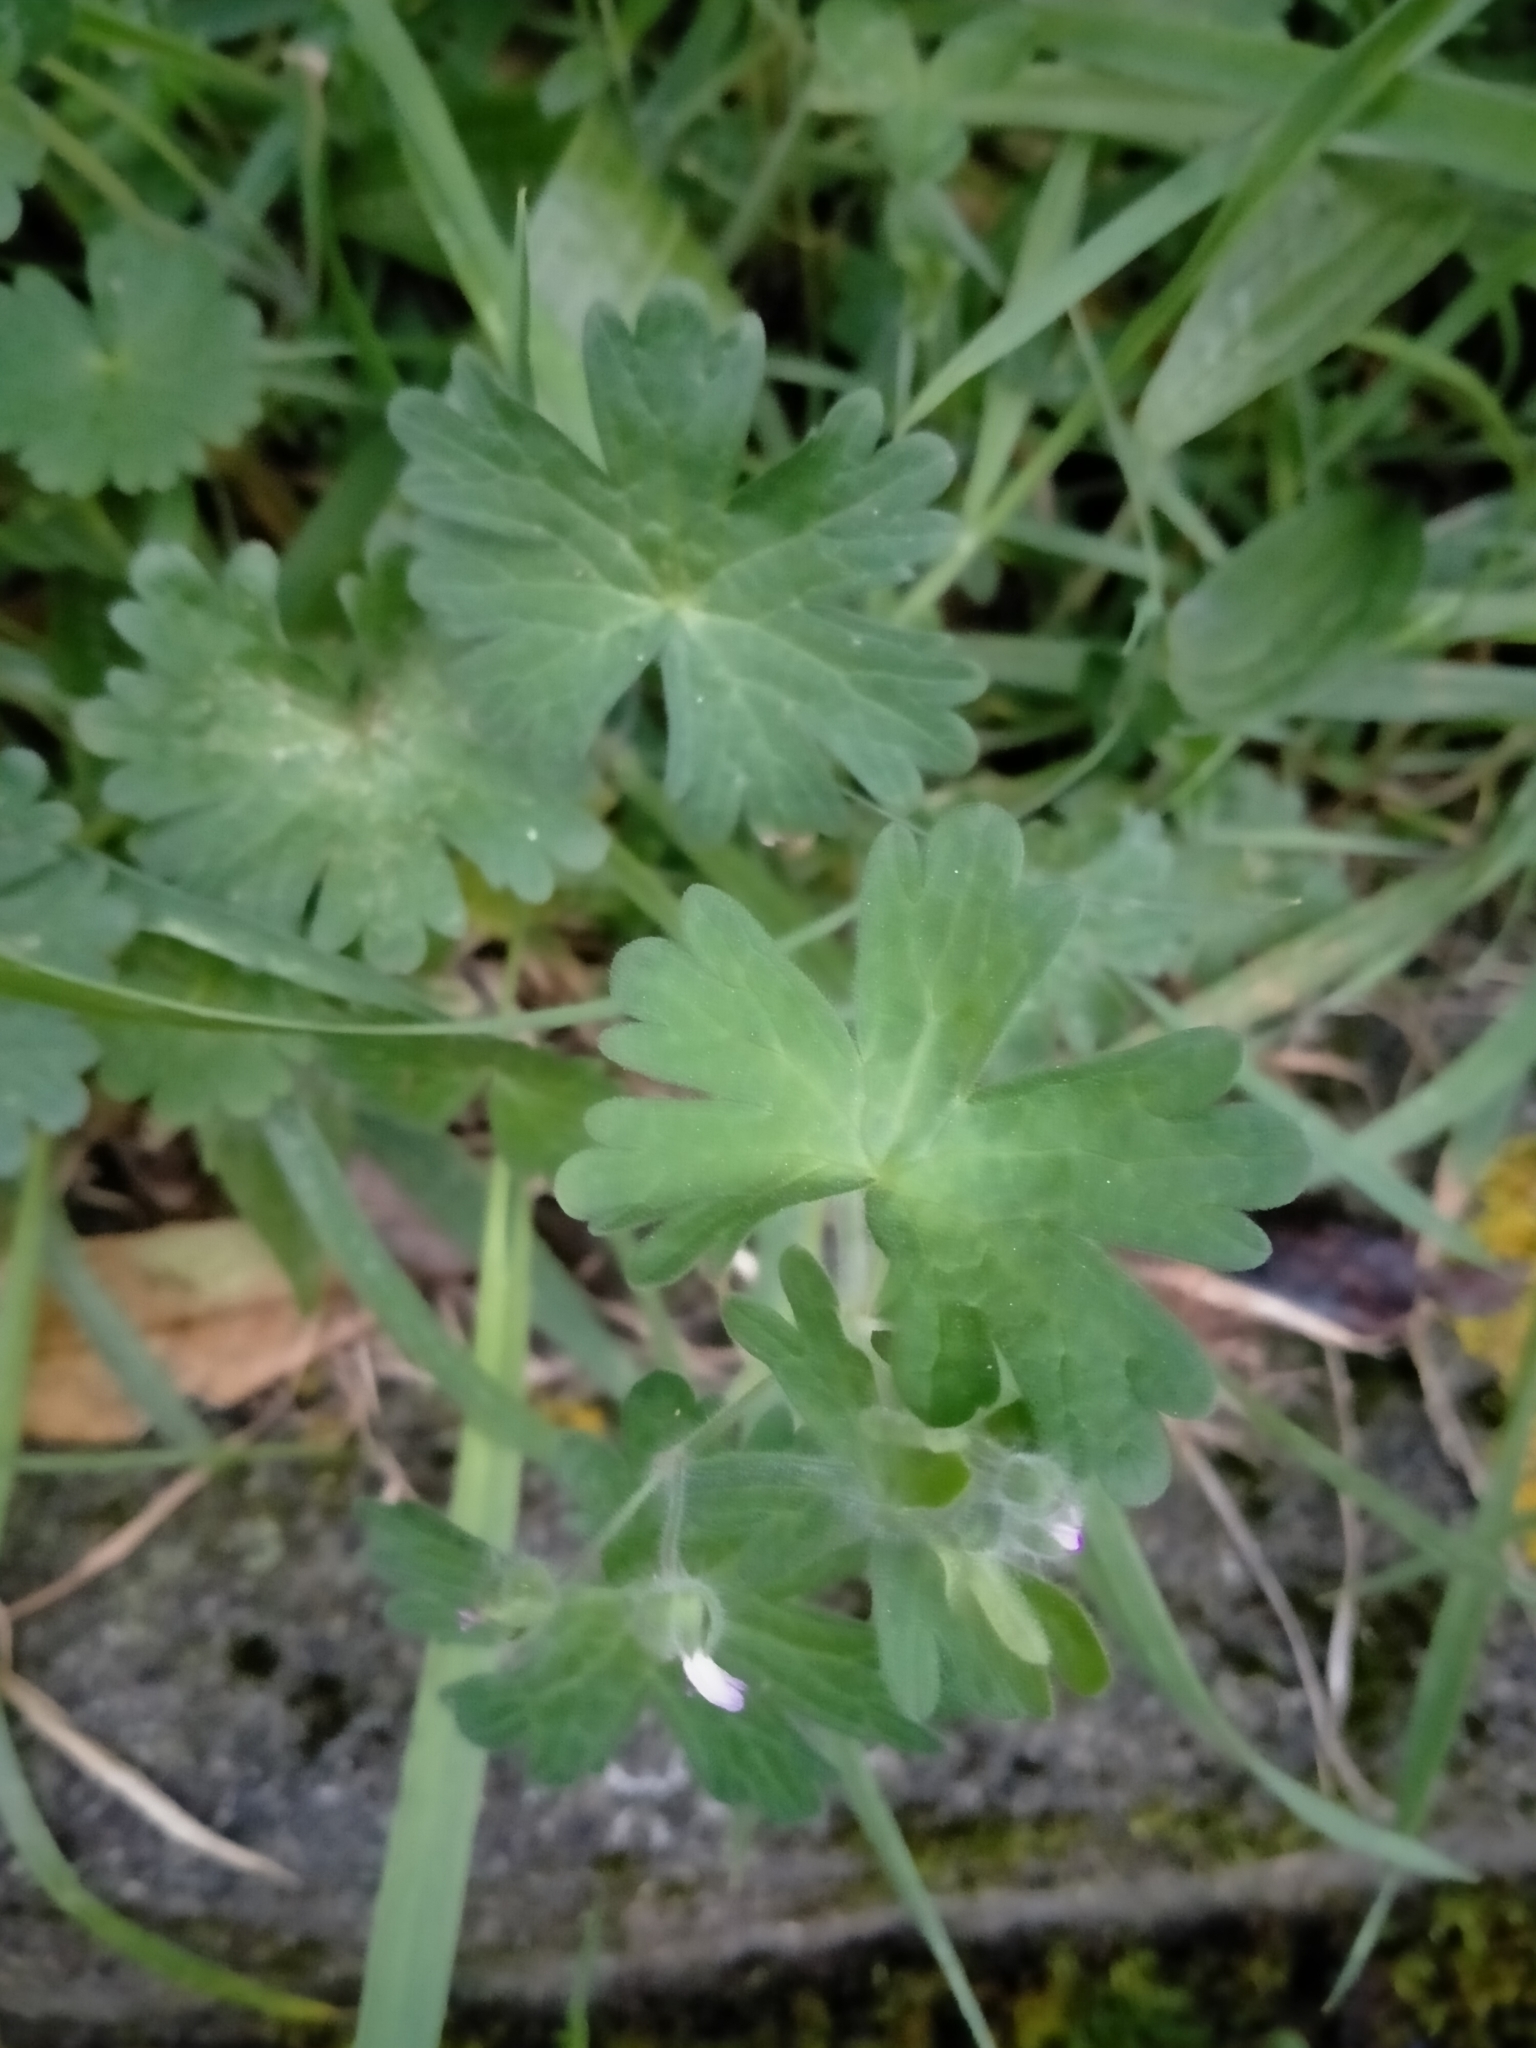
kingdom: Plantae
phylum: Tracheophyta
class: Magnoliopsida
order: Geraniales
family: Geraniaceae
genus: Geranium
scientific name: Geranium molle
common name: Dove's-foot crane's-bill
